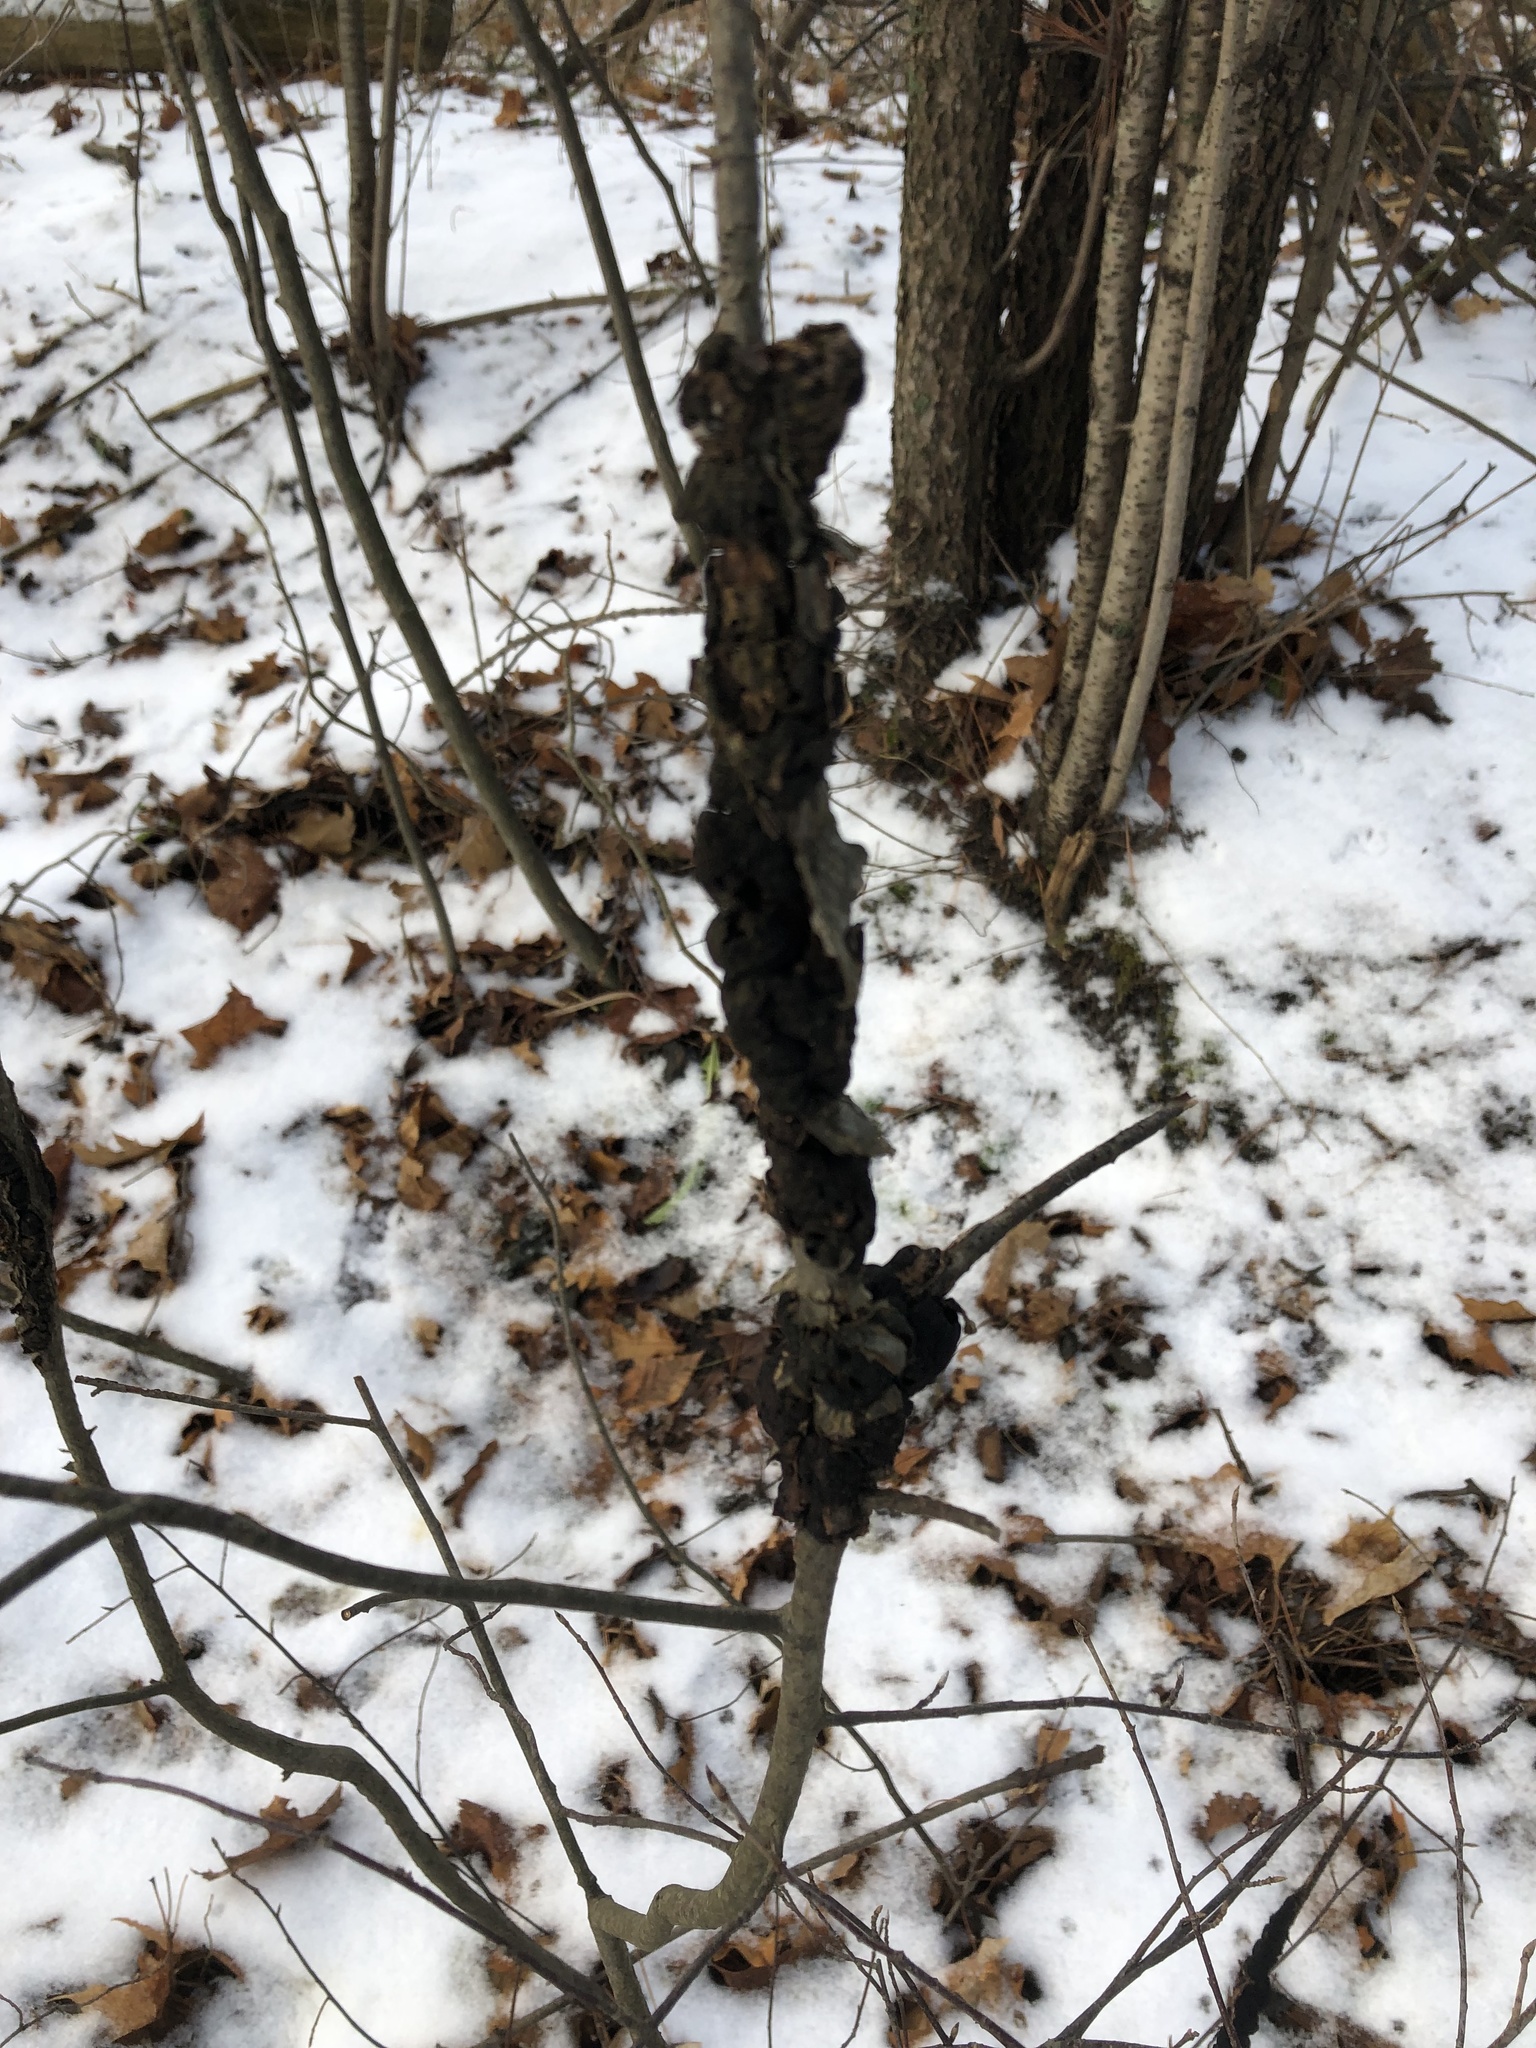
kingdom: Fungi
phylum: Ascomycota
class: Dothideomycetes
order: Venturiales
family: Venturiaceae
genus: Apiosporina
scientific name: Apiosporina morbosa
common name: Black knot
